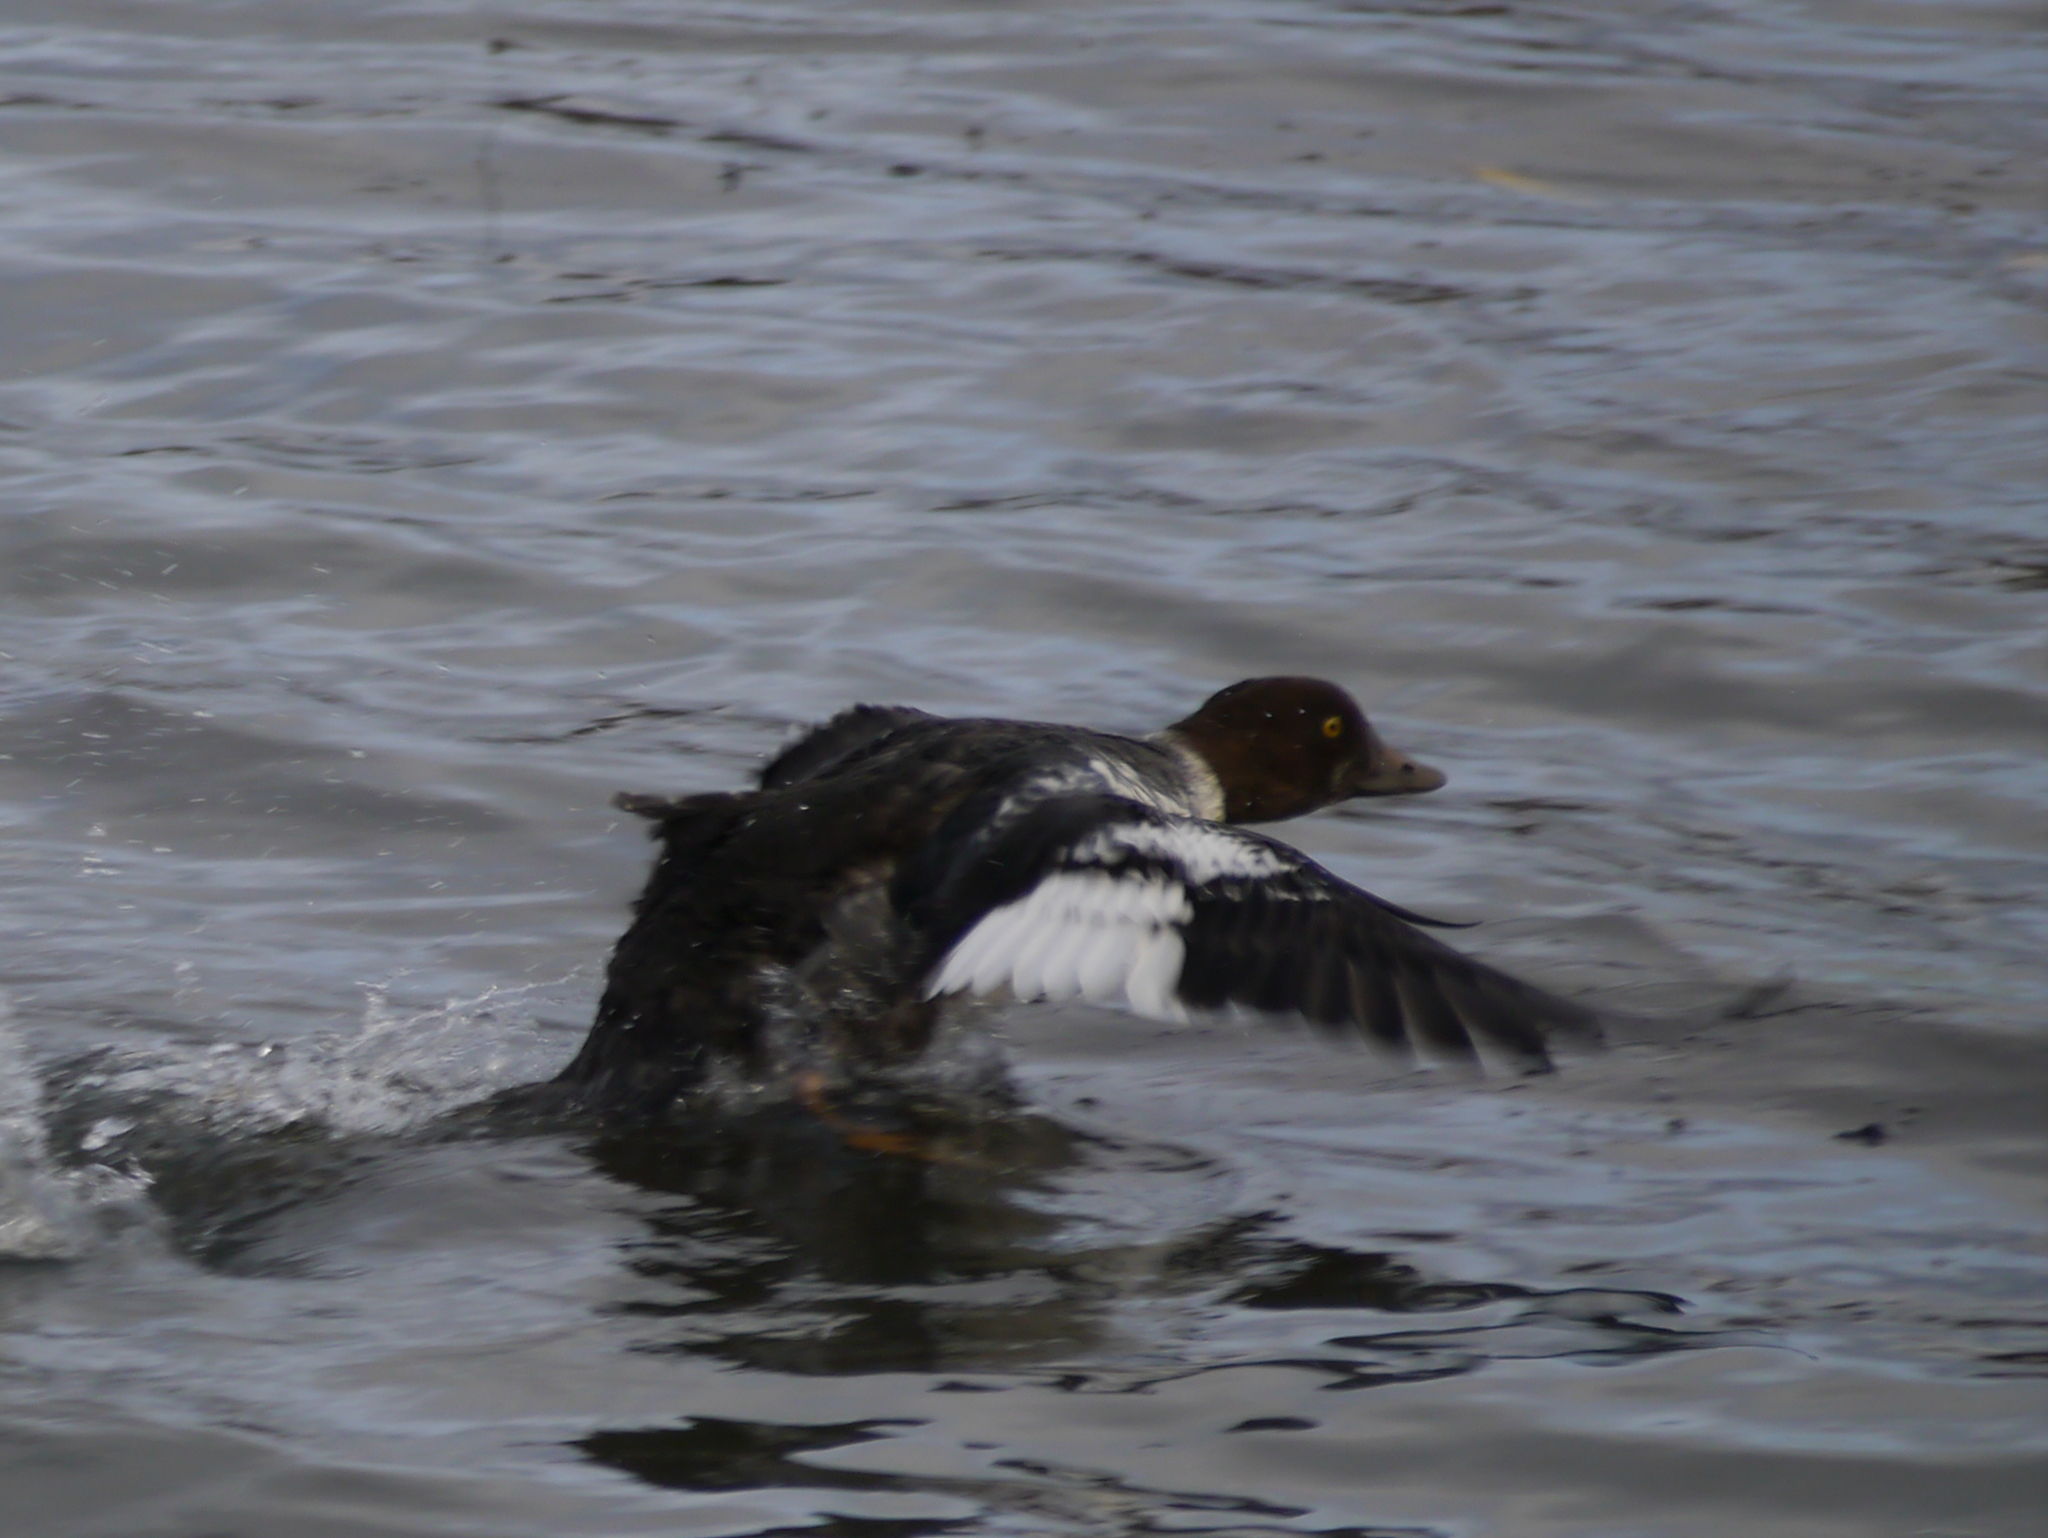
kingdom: Animalia
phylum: Chordata
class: Aves
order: Anseriformes
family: Anatidae
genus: Bucephala
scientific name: Bucephala clangula
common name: Common goldeneye
